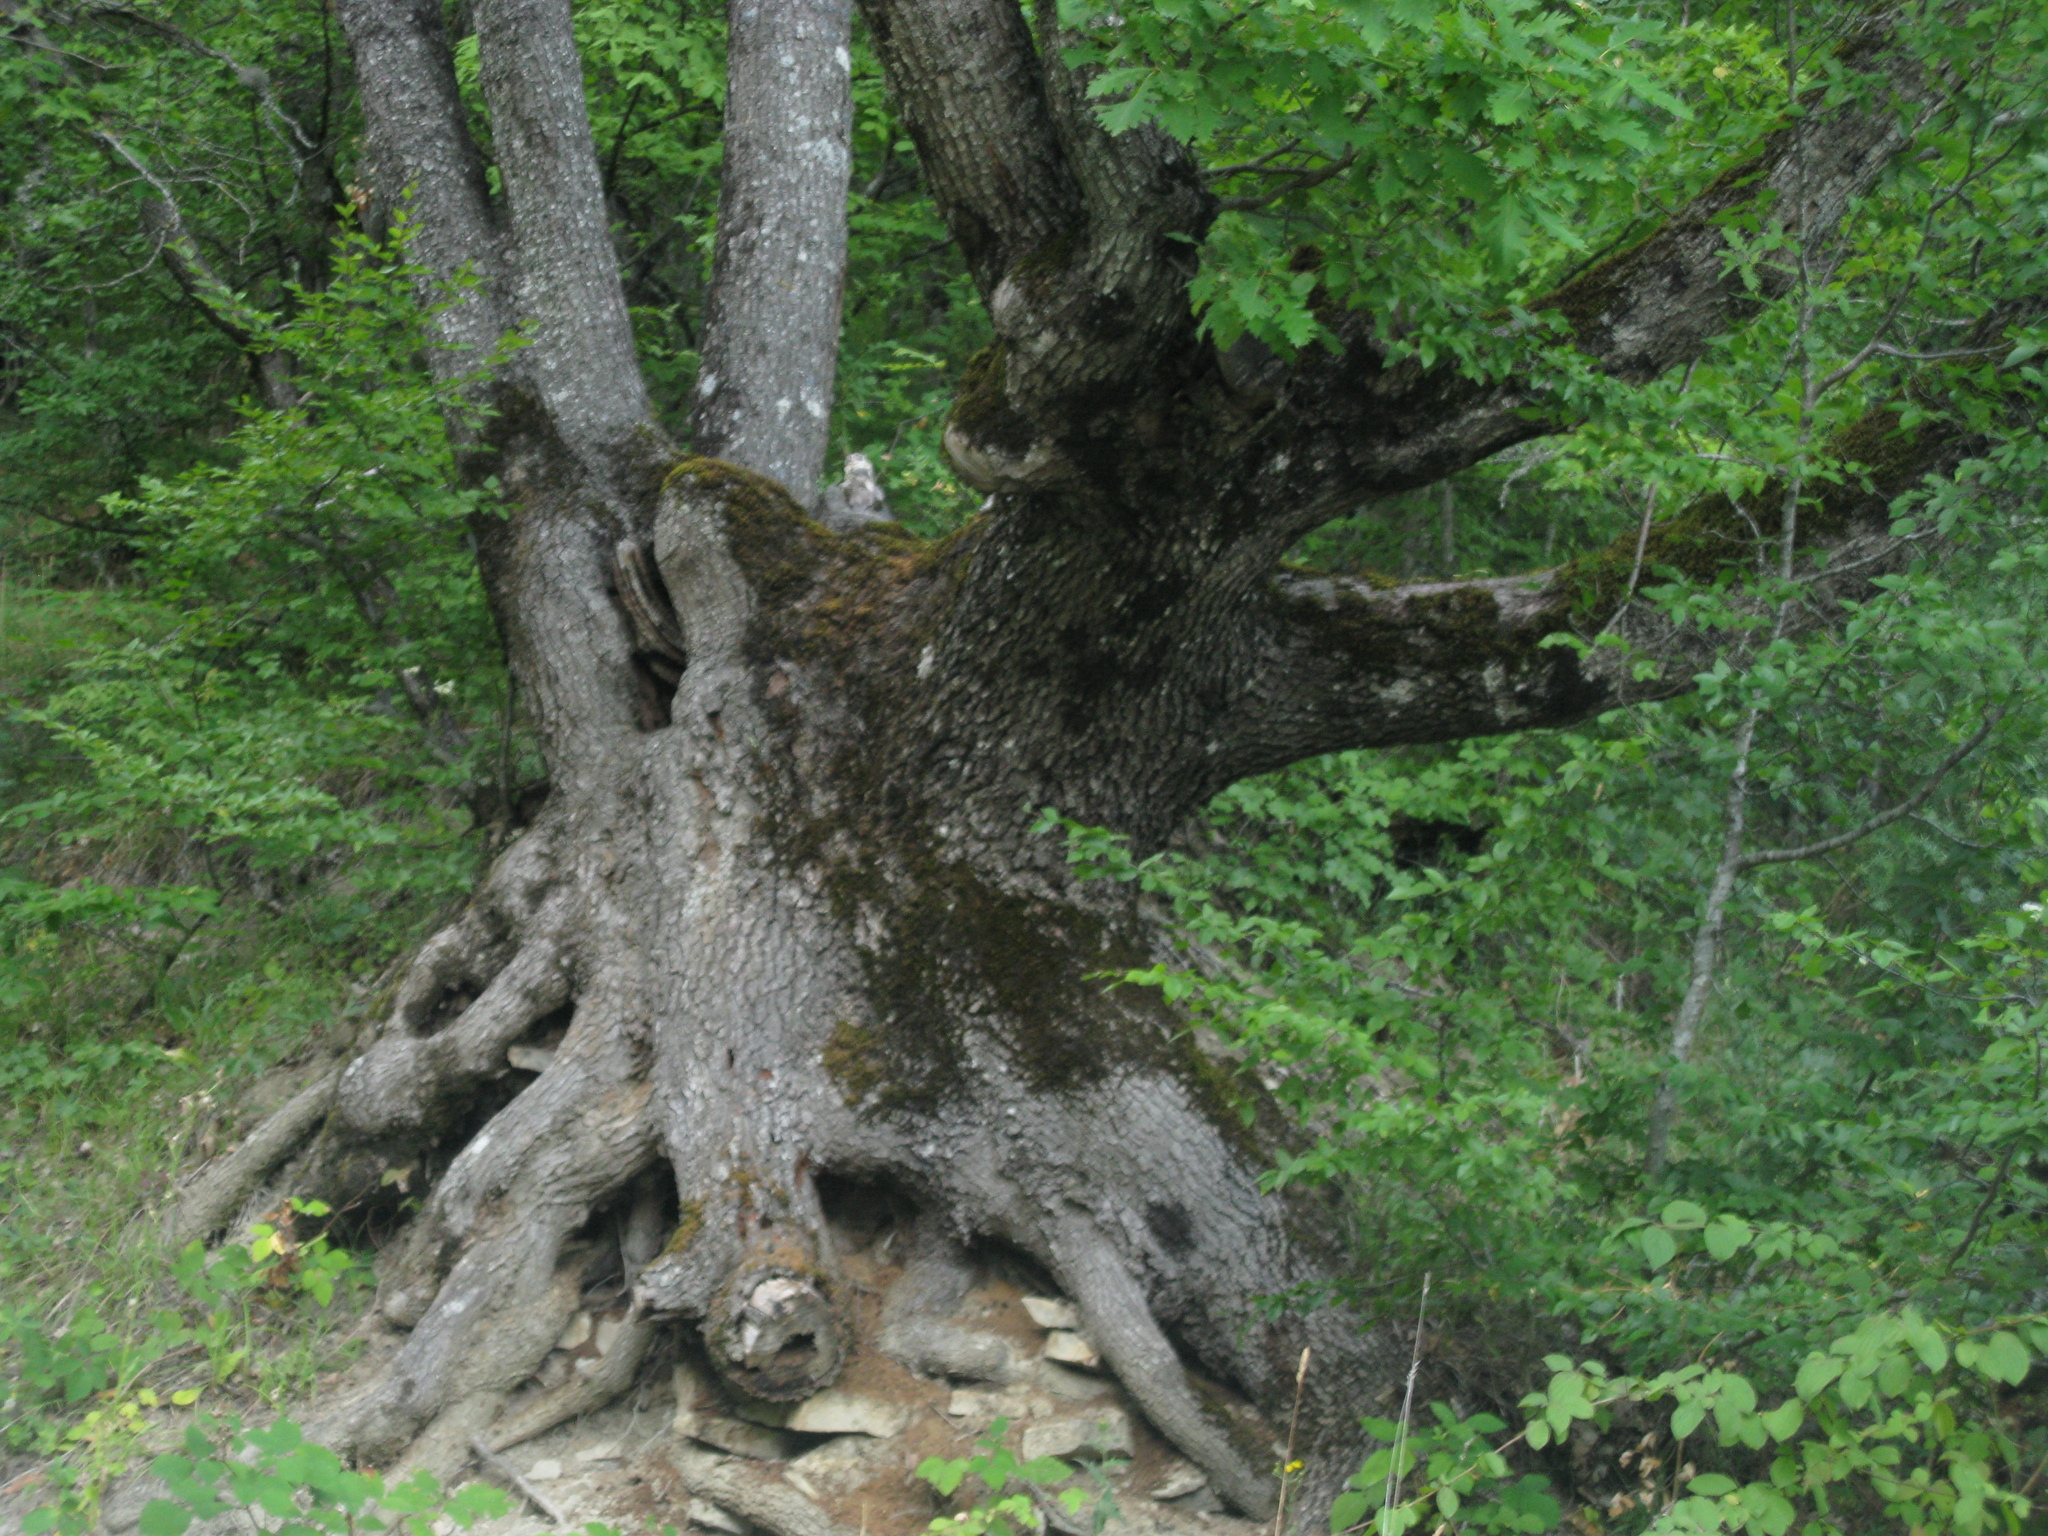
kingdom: Plantae
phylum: Tracheophyta
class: Magnoliopsida
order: Fagales
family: Fagaceae
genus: Quercus
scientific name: Quercus pubescens
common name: Downy oak
